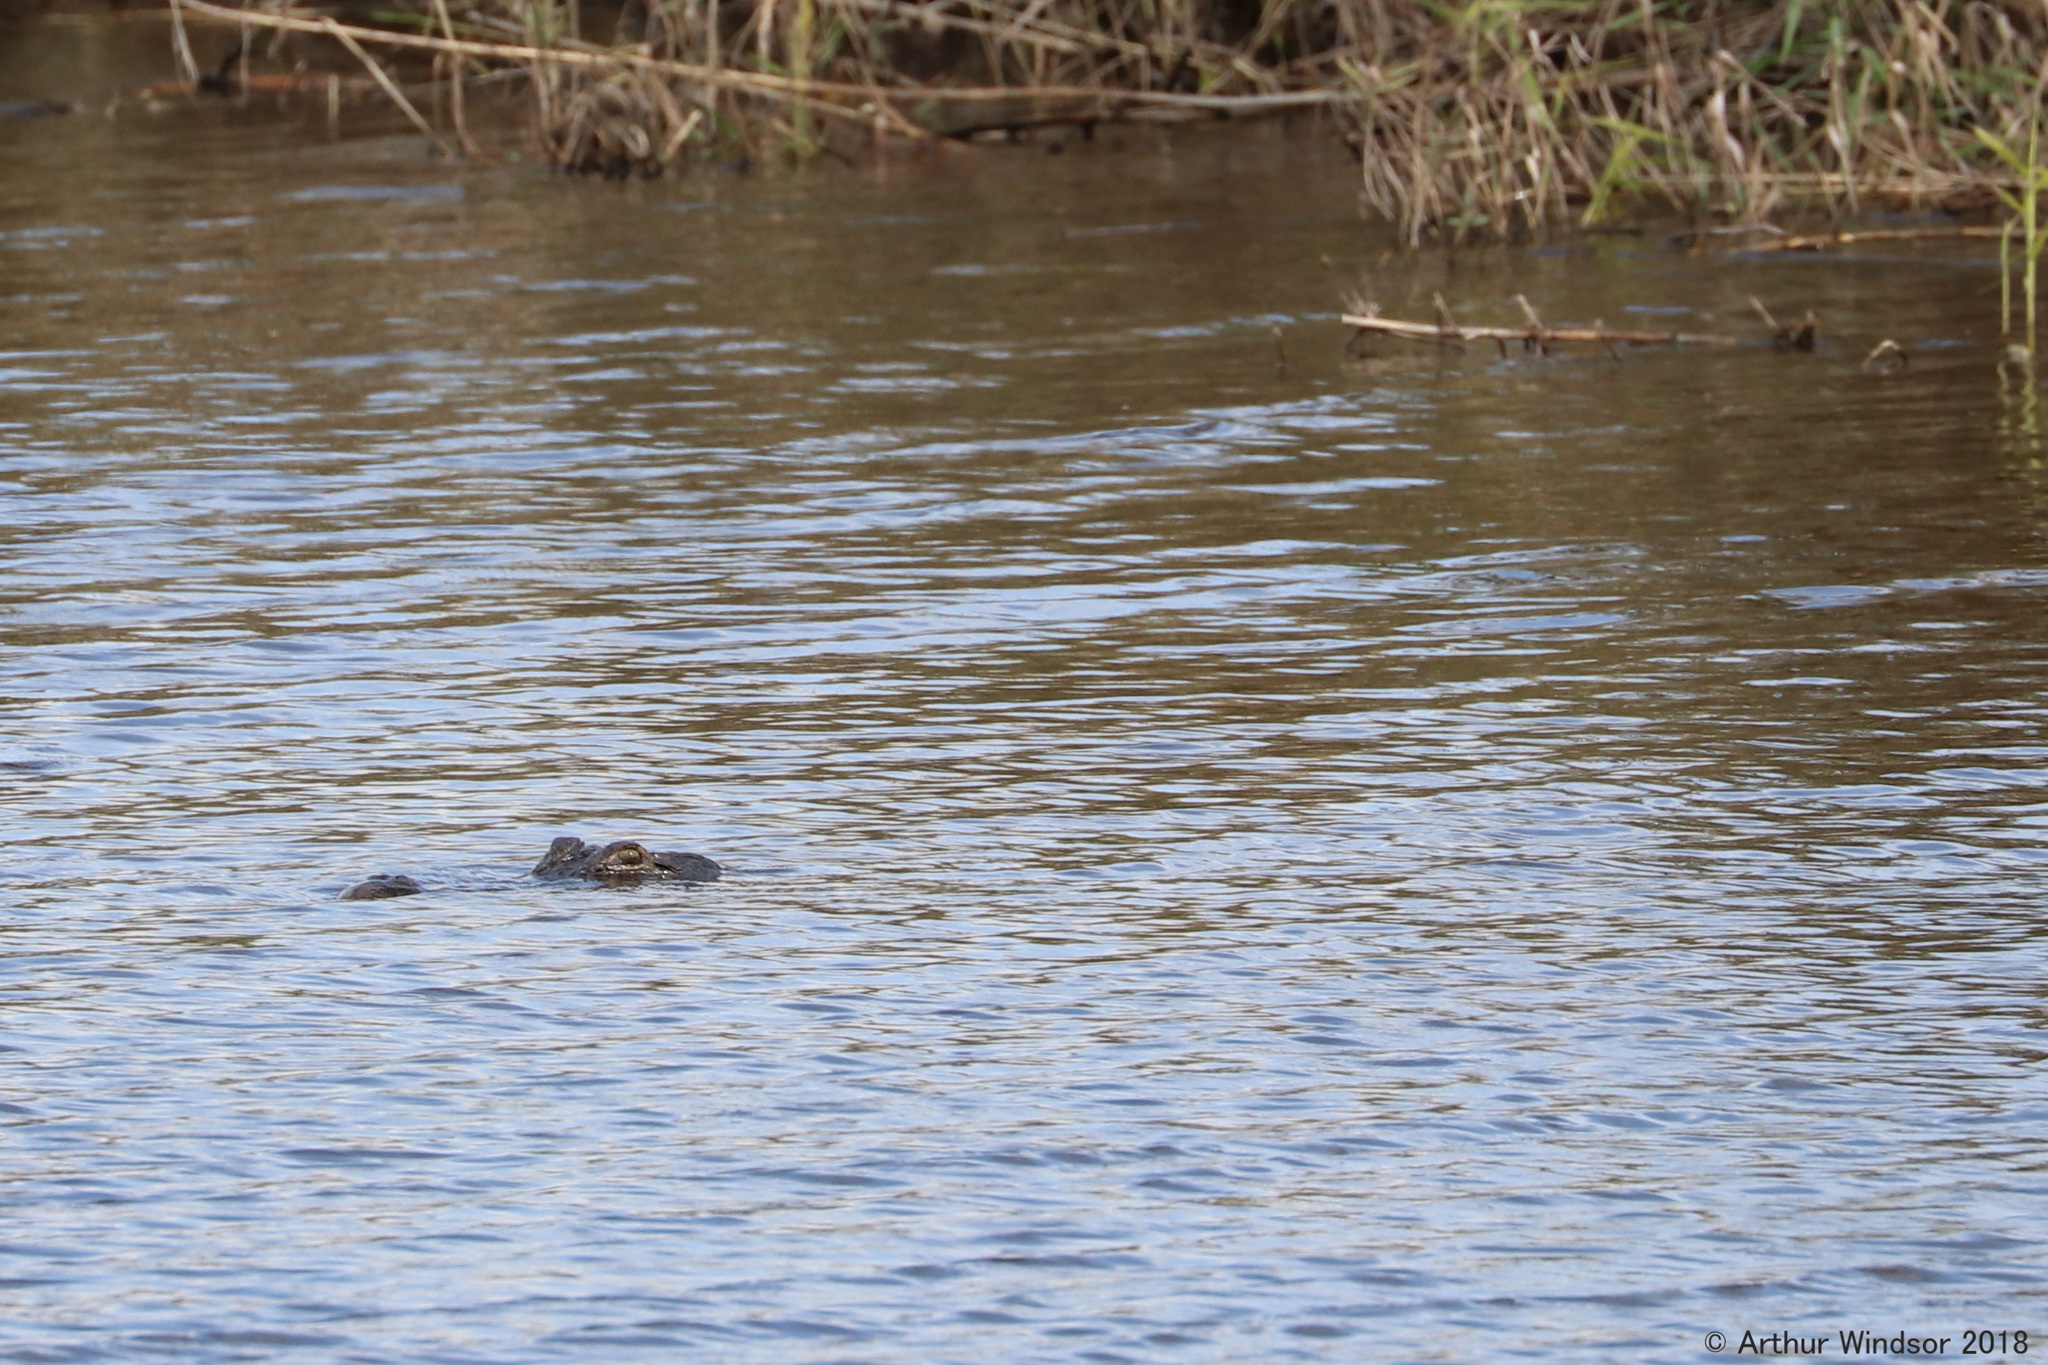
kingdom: Animalia
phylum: Chordata
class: Crocodylia
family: Alligatoridae
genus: Alligator
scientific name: Alligator mississippiensis
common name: American alligator
